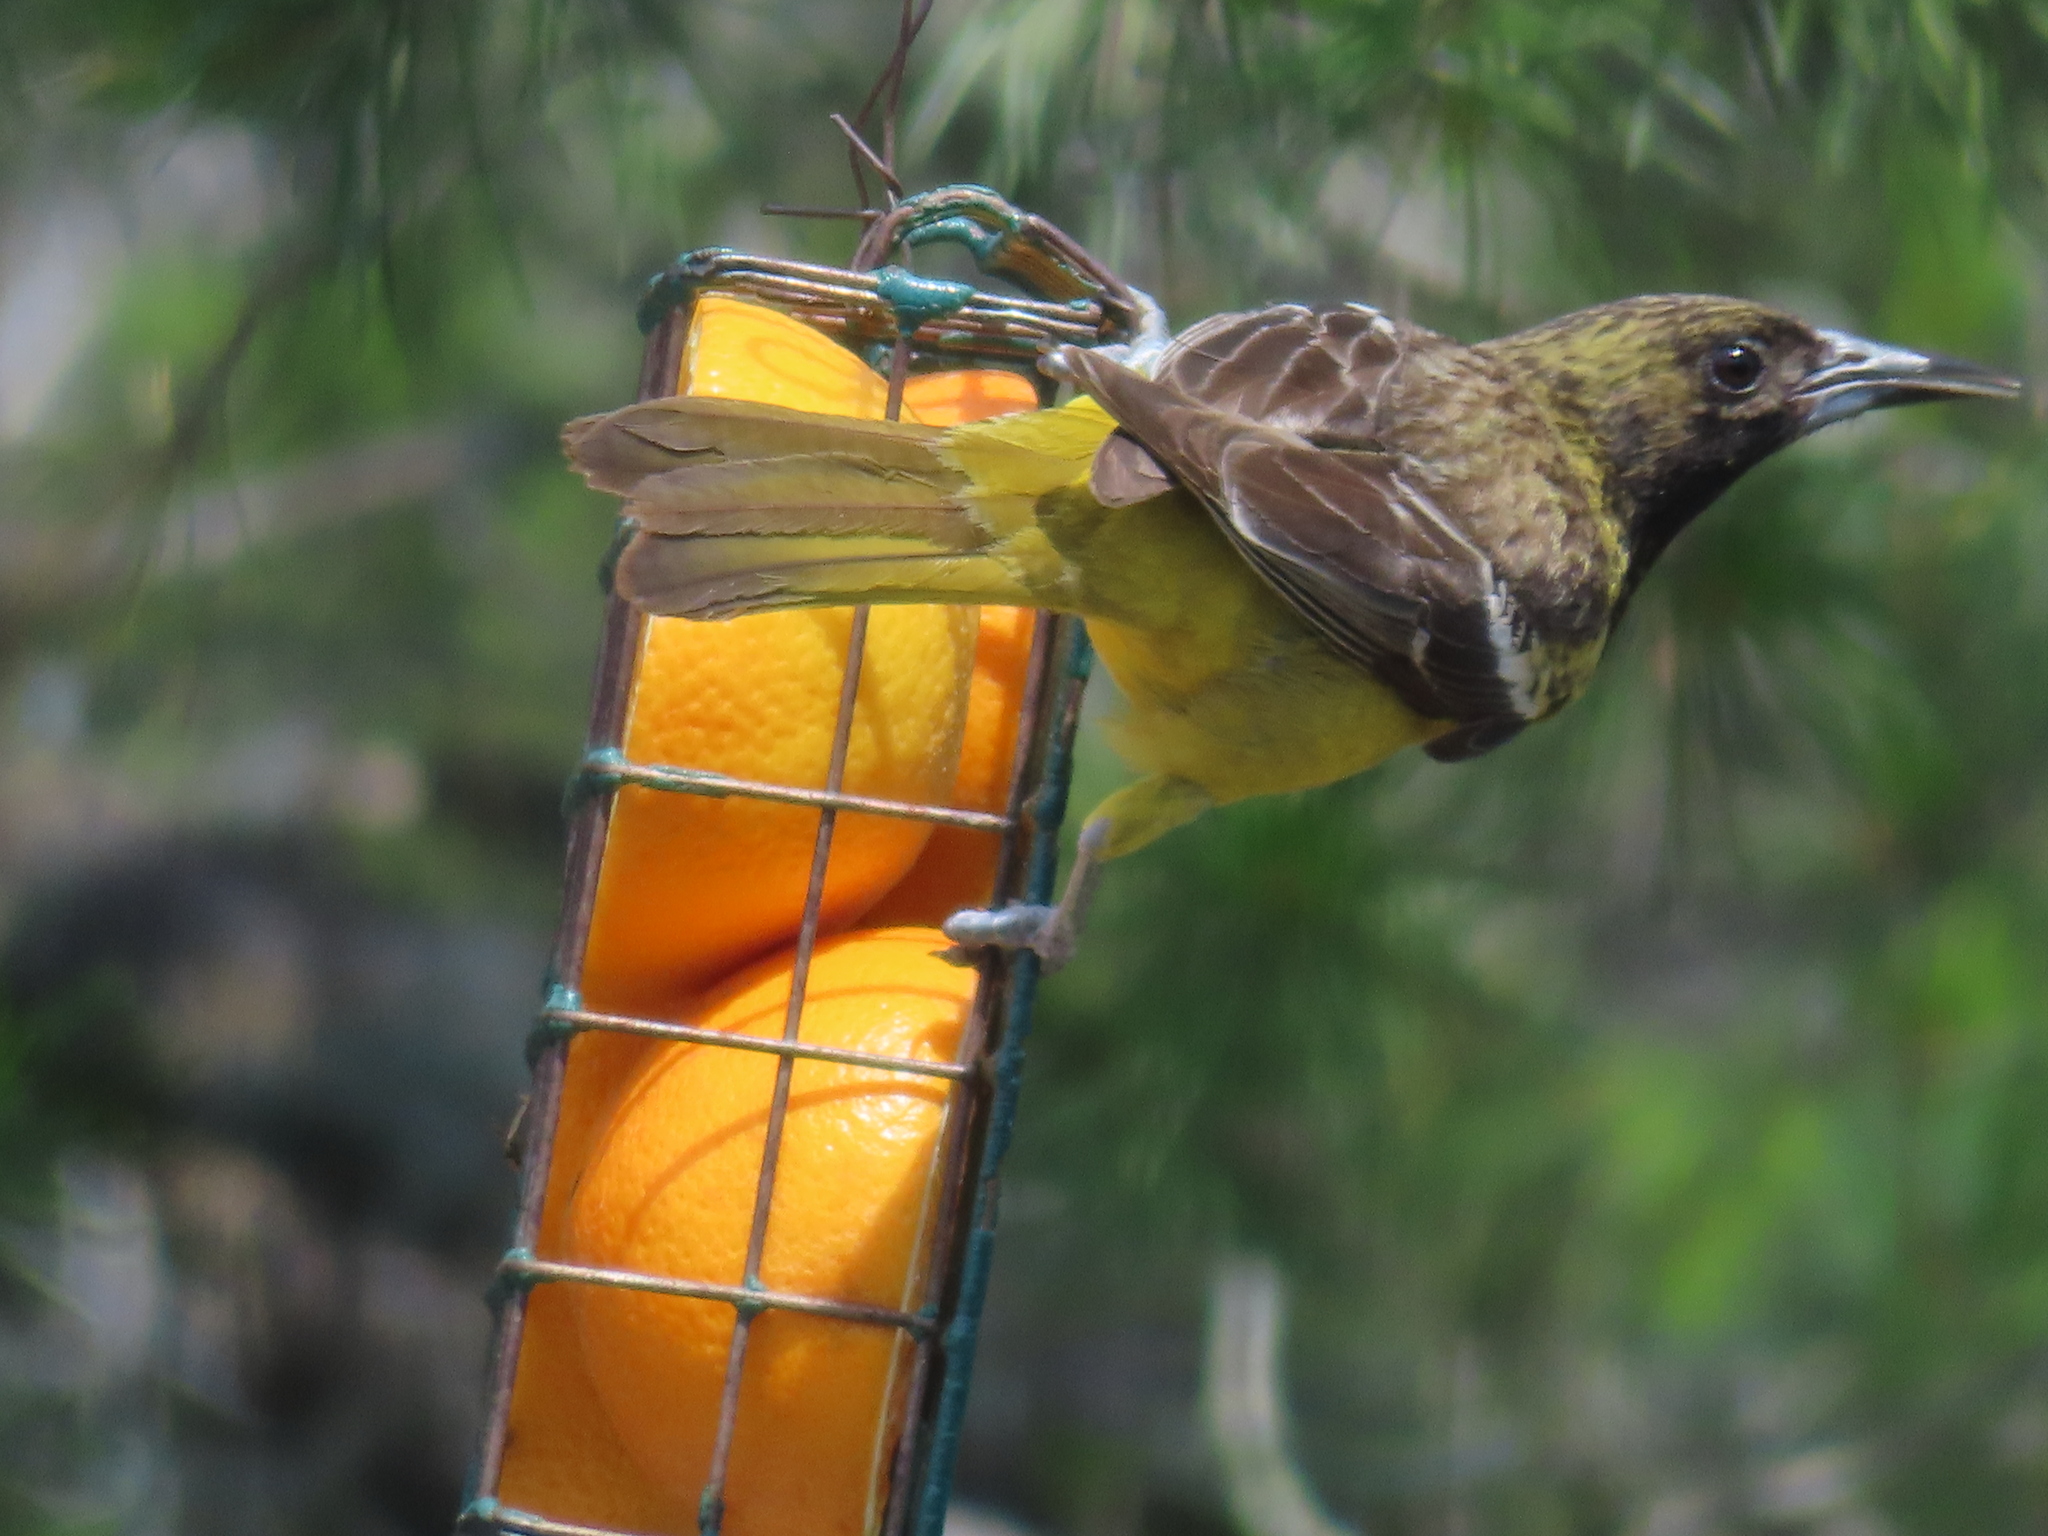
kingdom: Animalia
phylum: Chordata
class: Aves
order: Passeriformes
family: Icteridae
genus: Icterus
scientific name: Icterus parisorum
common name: Scott's oriole
